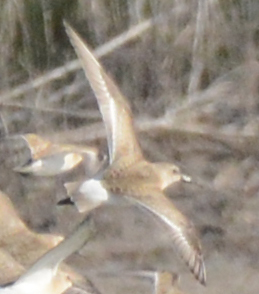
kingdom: Animalia
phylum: Chordata
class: Aves
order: Charadriiformes
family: Scolopacidae
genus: Calidris
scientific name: Calidris ferruginea
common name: Curlew sandpiper
